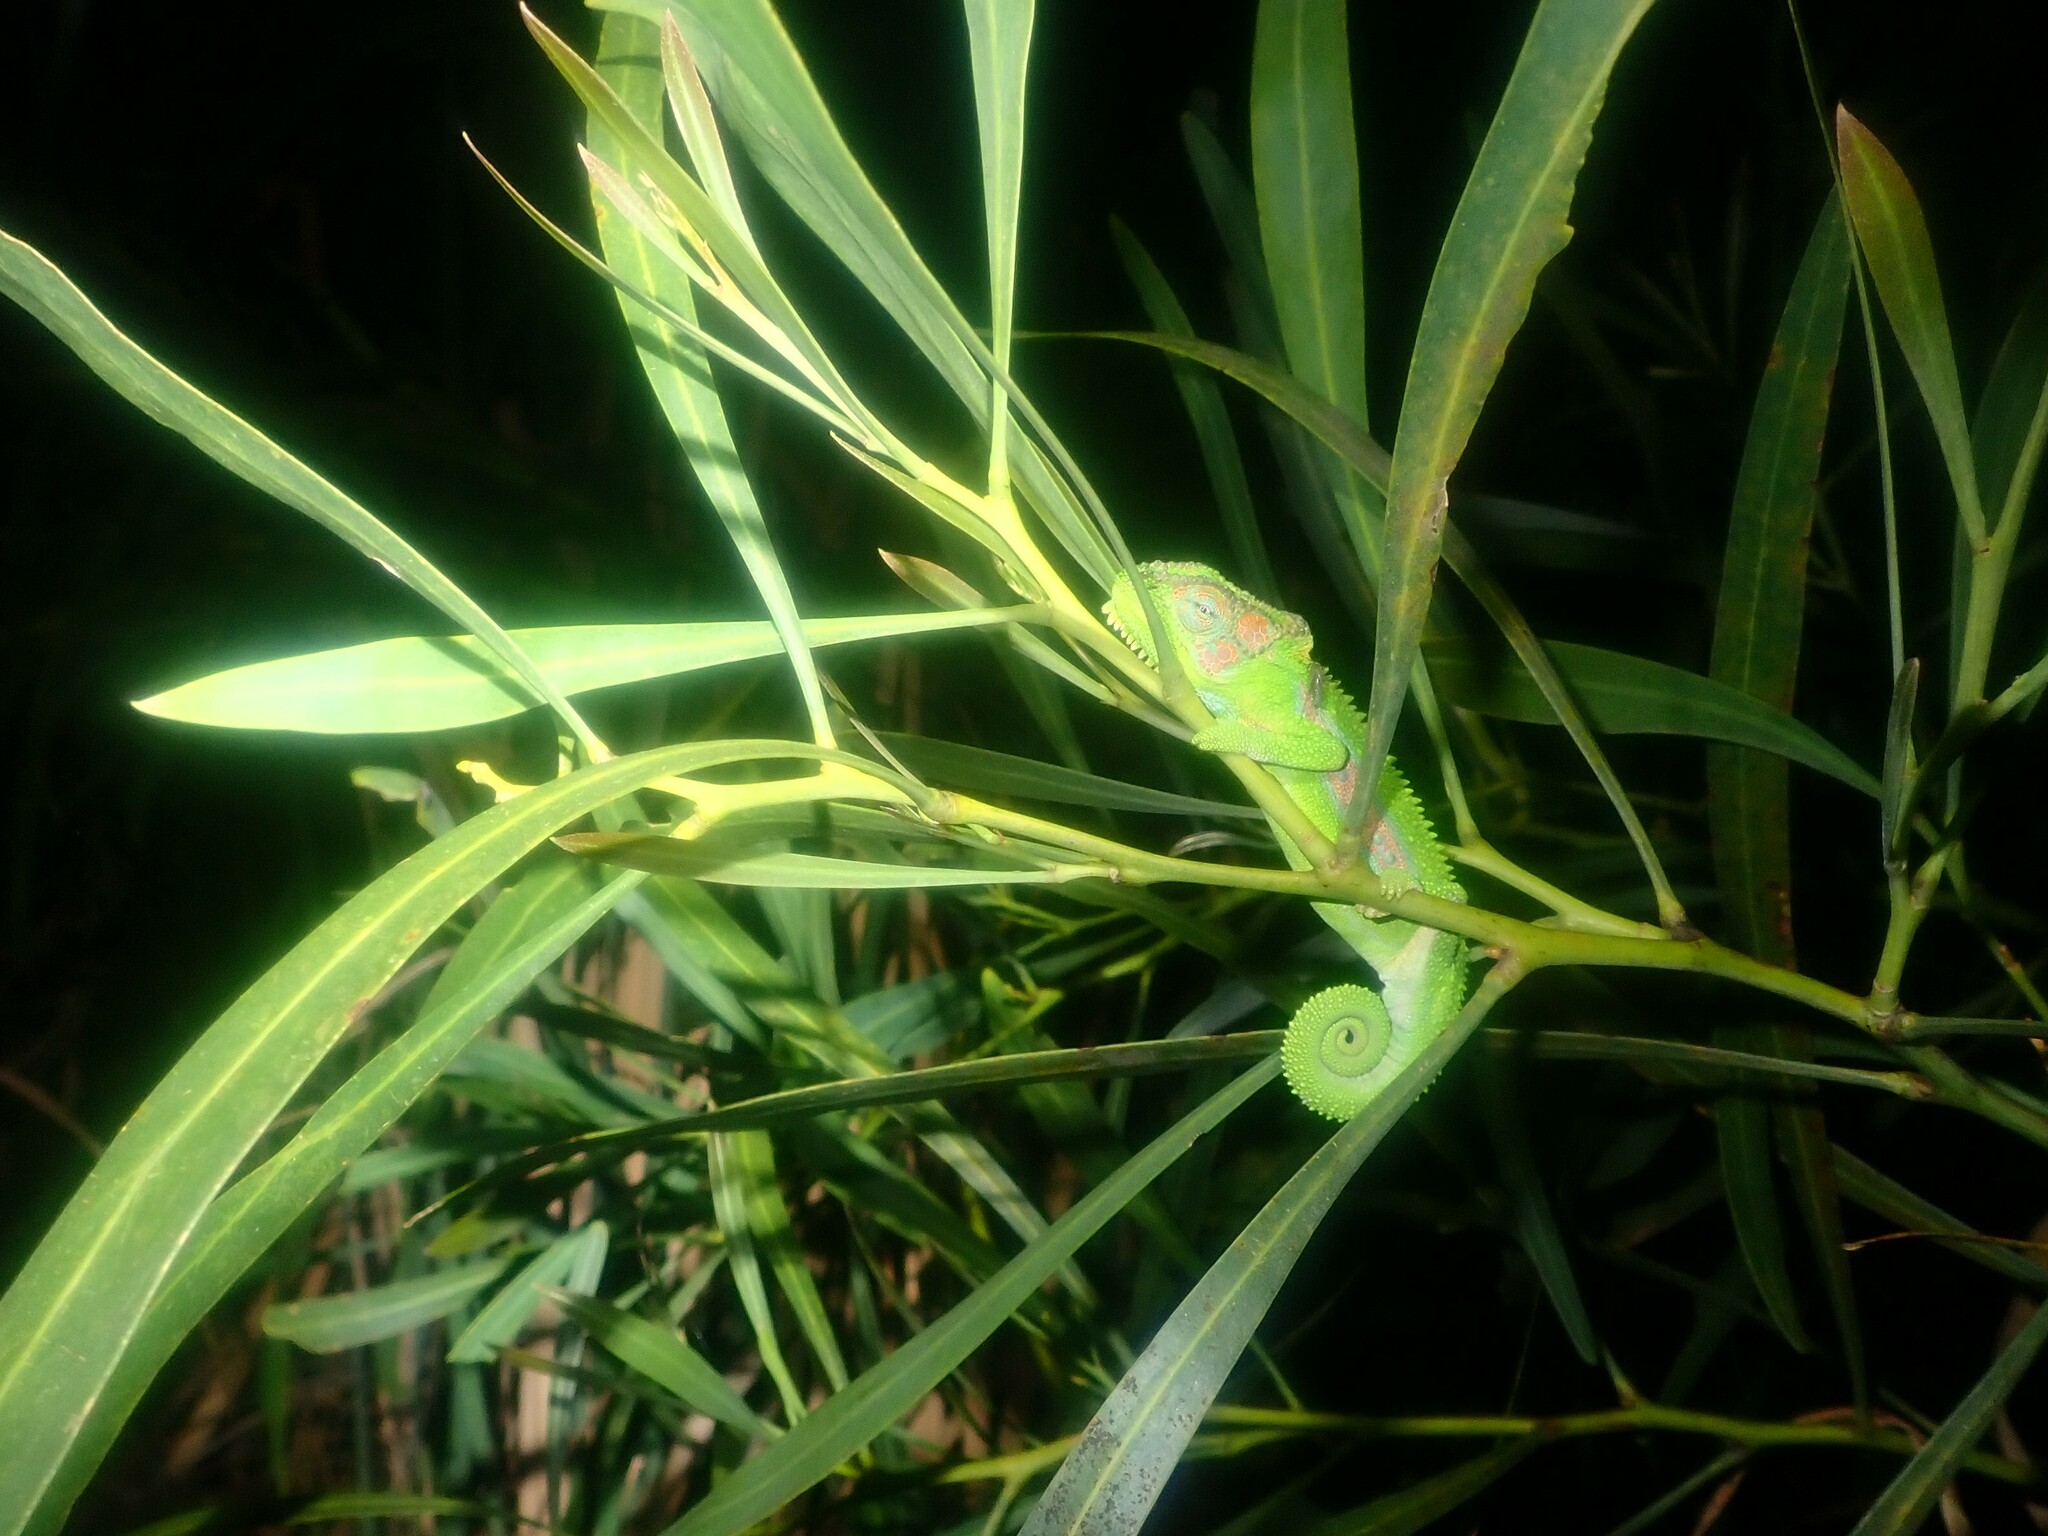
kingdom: Animalia
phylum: Chordata
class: Squamata
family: Chamaeleonidae
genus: Bradypodion
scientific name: Bradypodion pumilum
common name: Cape dwarf chameleon
